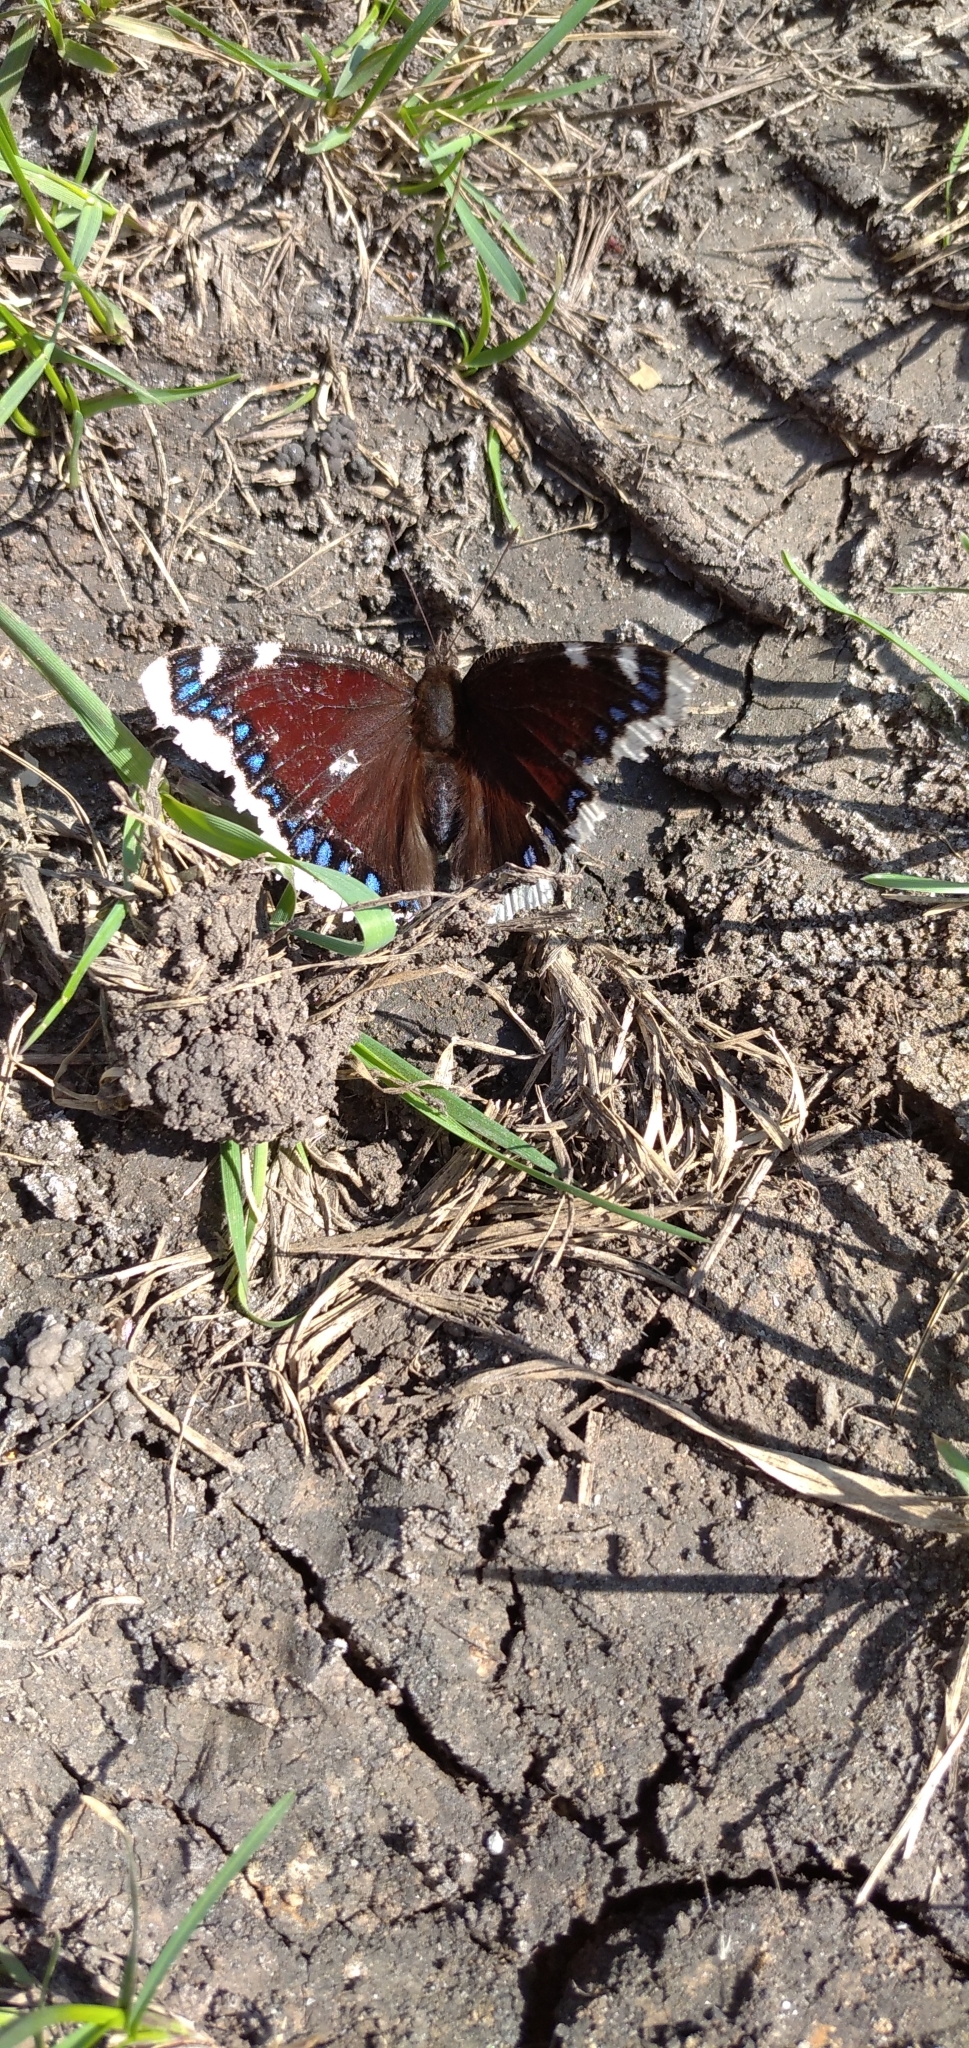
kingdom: Animalia
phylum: Arthropoda
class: Insecta
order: Lepidoptera
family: Nymphalidae
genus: Nymphalis
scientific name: Nymphalis antiopa
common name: Camberwell beauty
